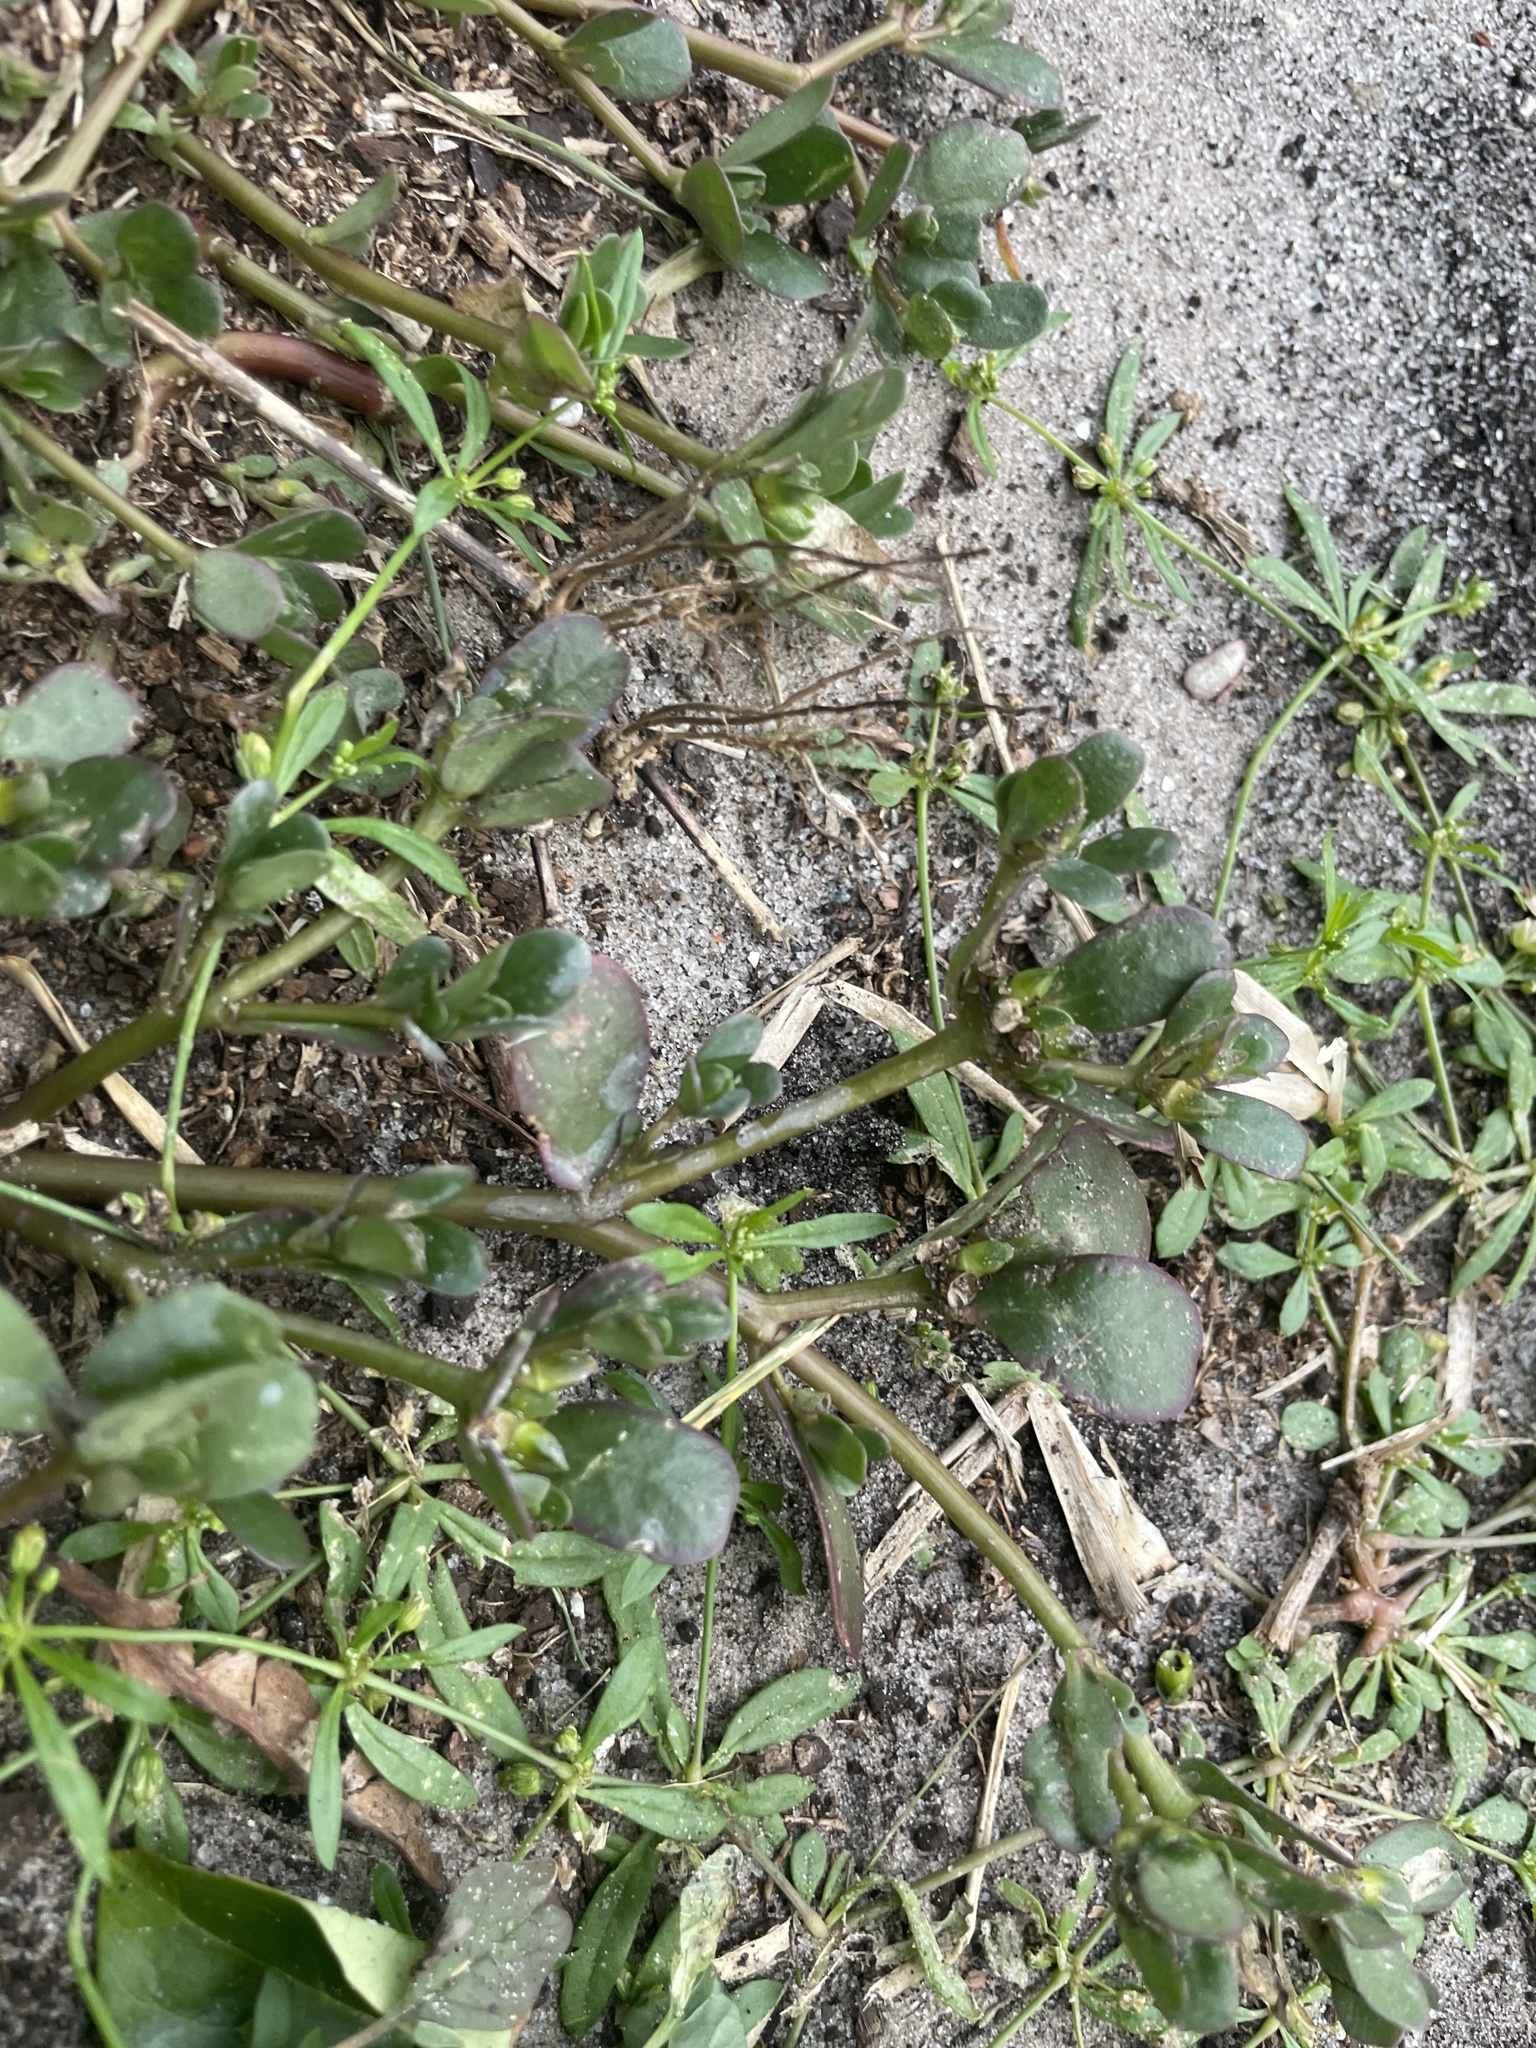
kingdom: Plantae
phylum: Tracheophyta
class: Magnoliopsida
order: Caryophyllales
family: Portulacaceae
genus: Portulaca
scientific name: Portulaca oleracea
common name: Common purslane
